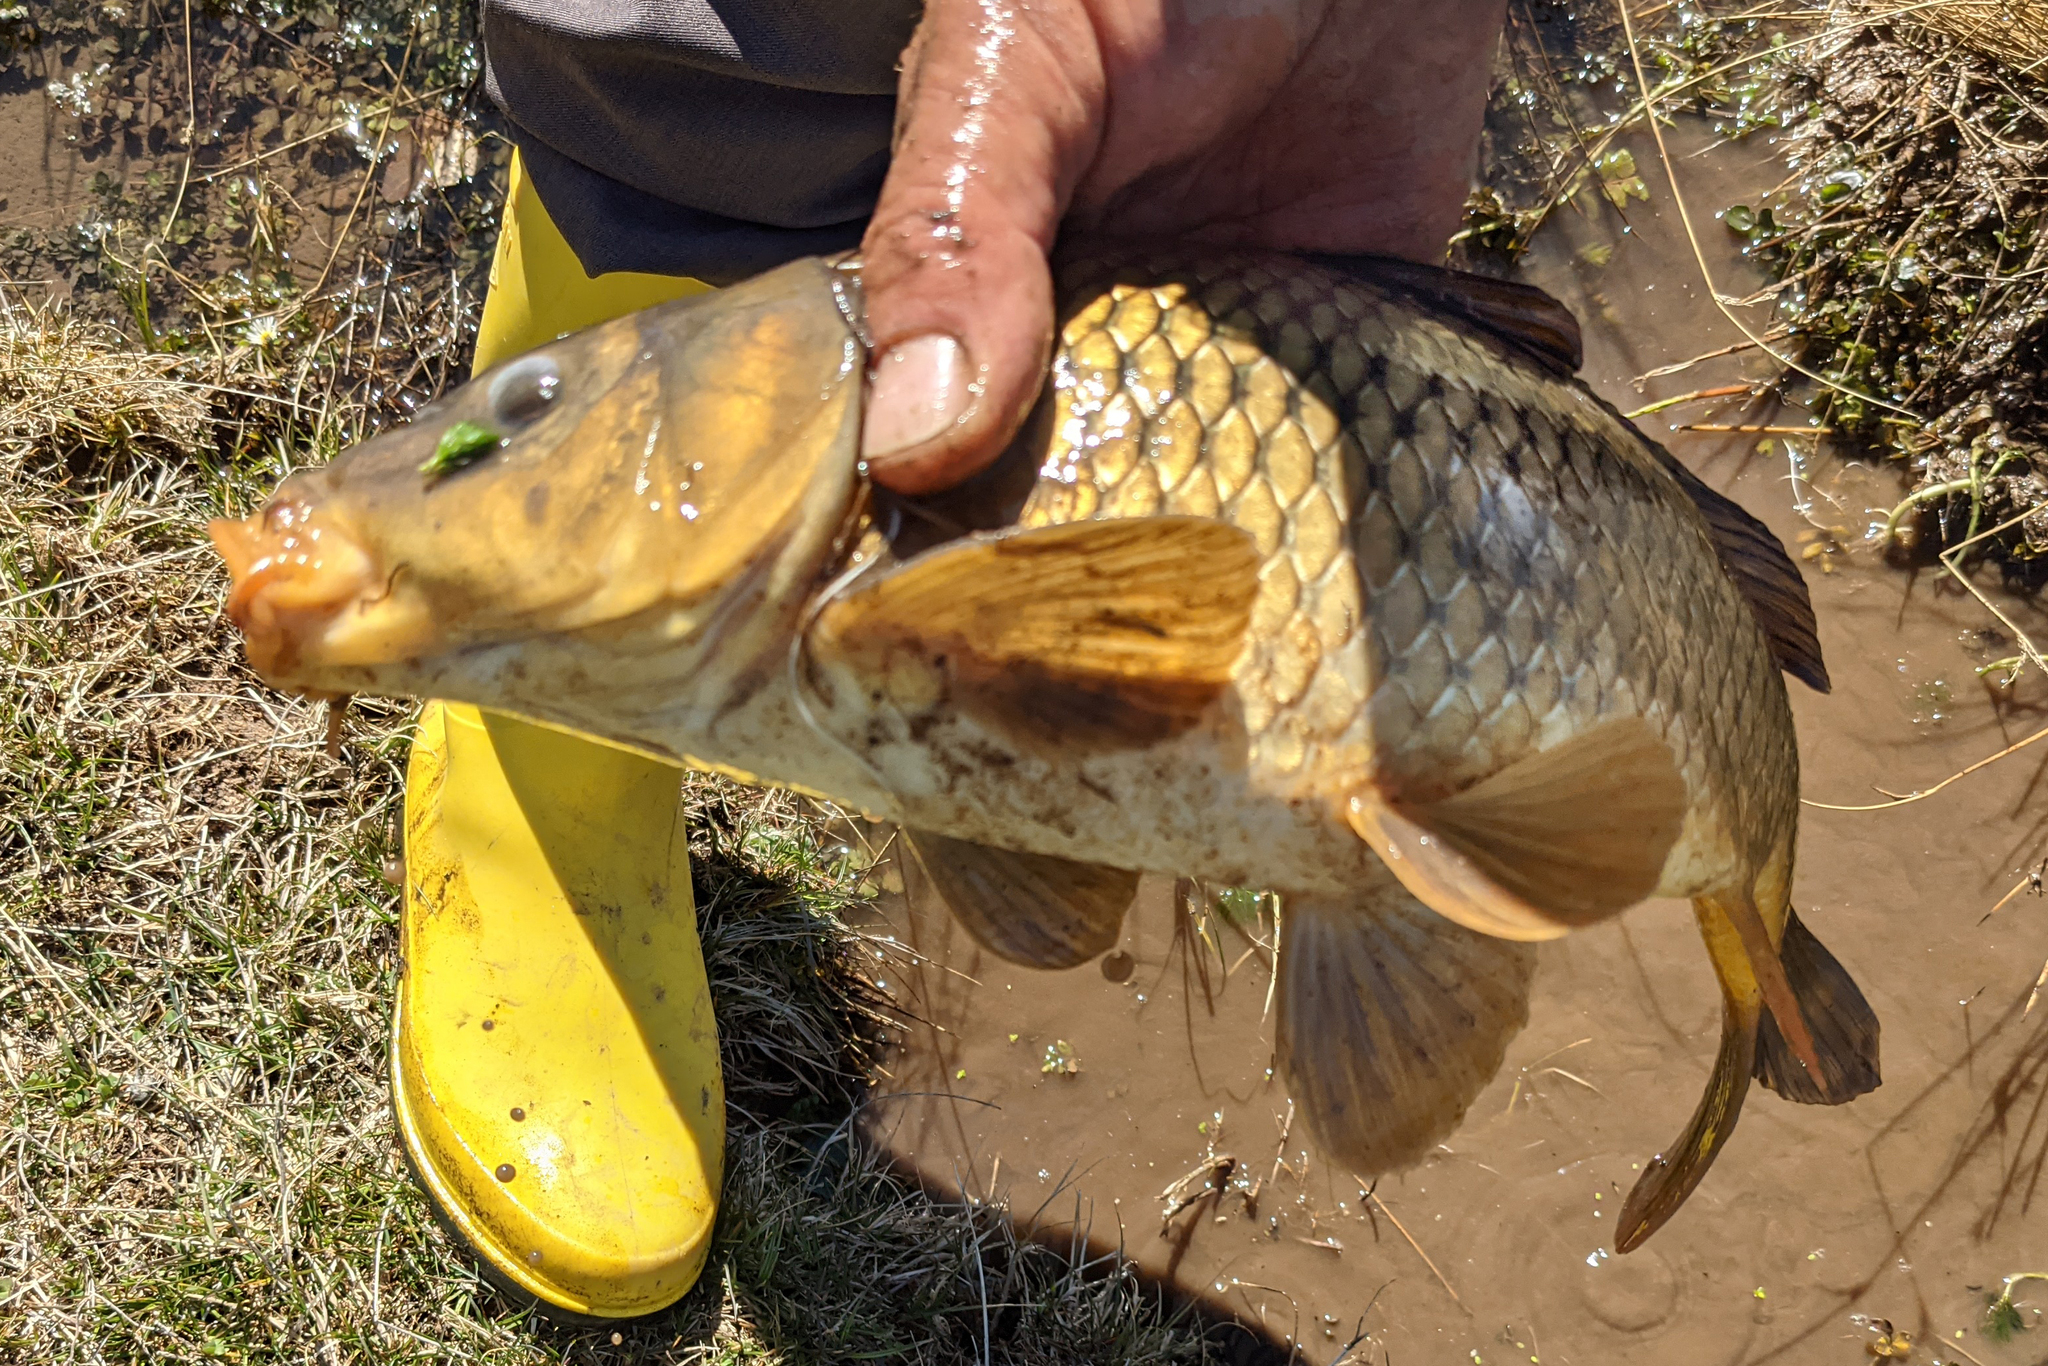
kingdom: Animalia
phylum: Chordata
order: Cypriniformes
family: Cyprinidae
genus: Cyprinus
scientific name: Cyprinus carpio
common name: Common carp
